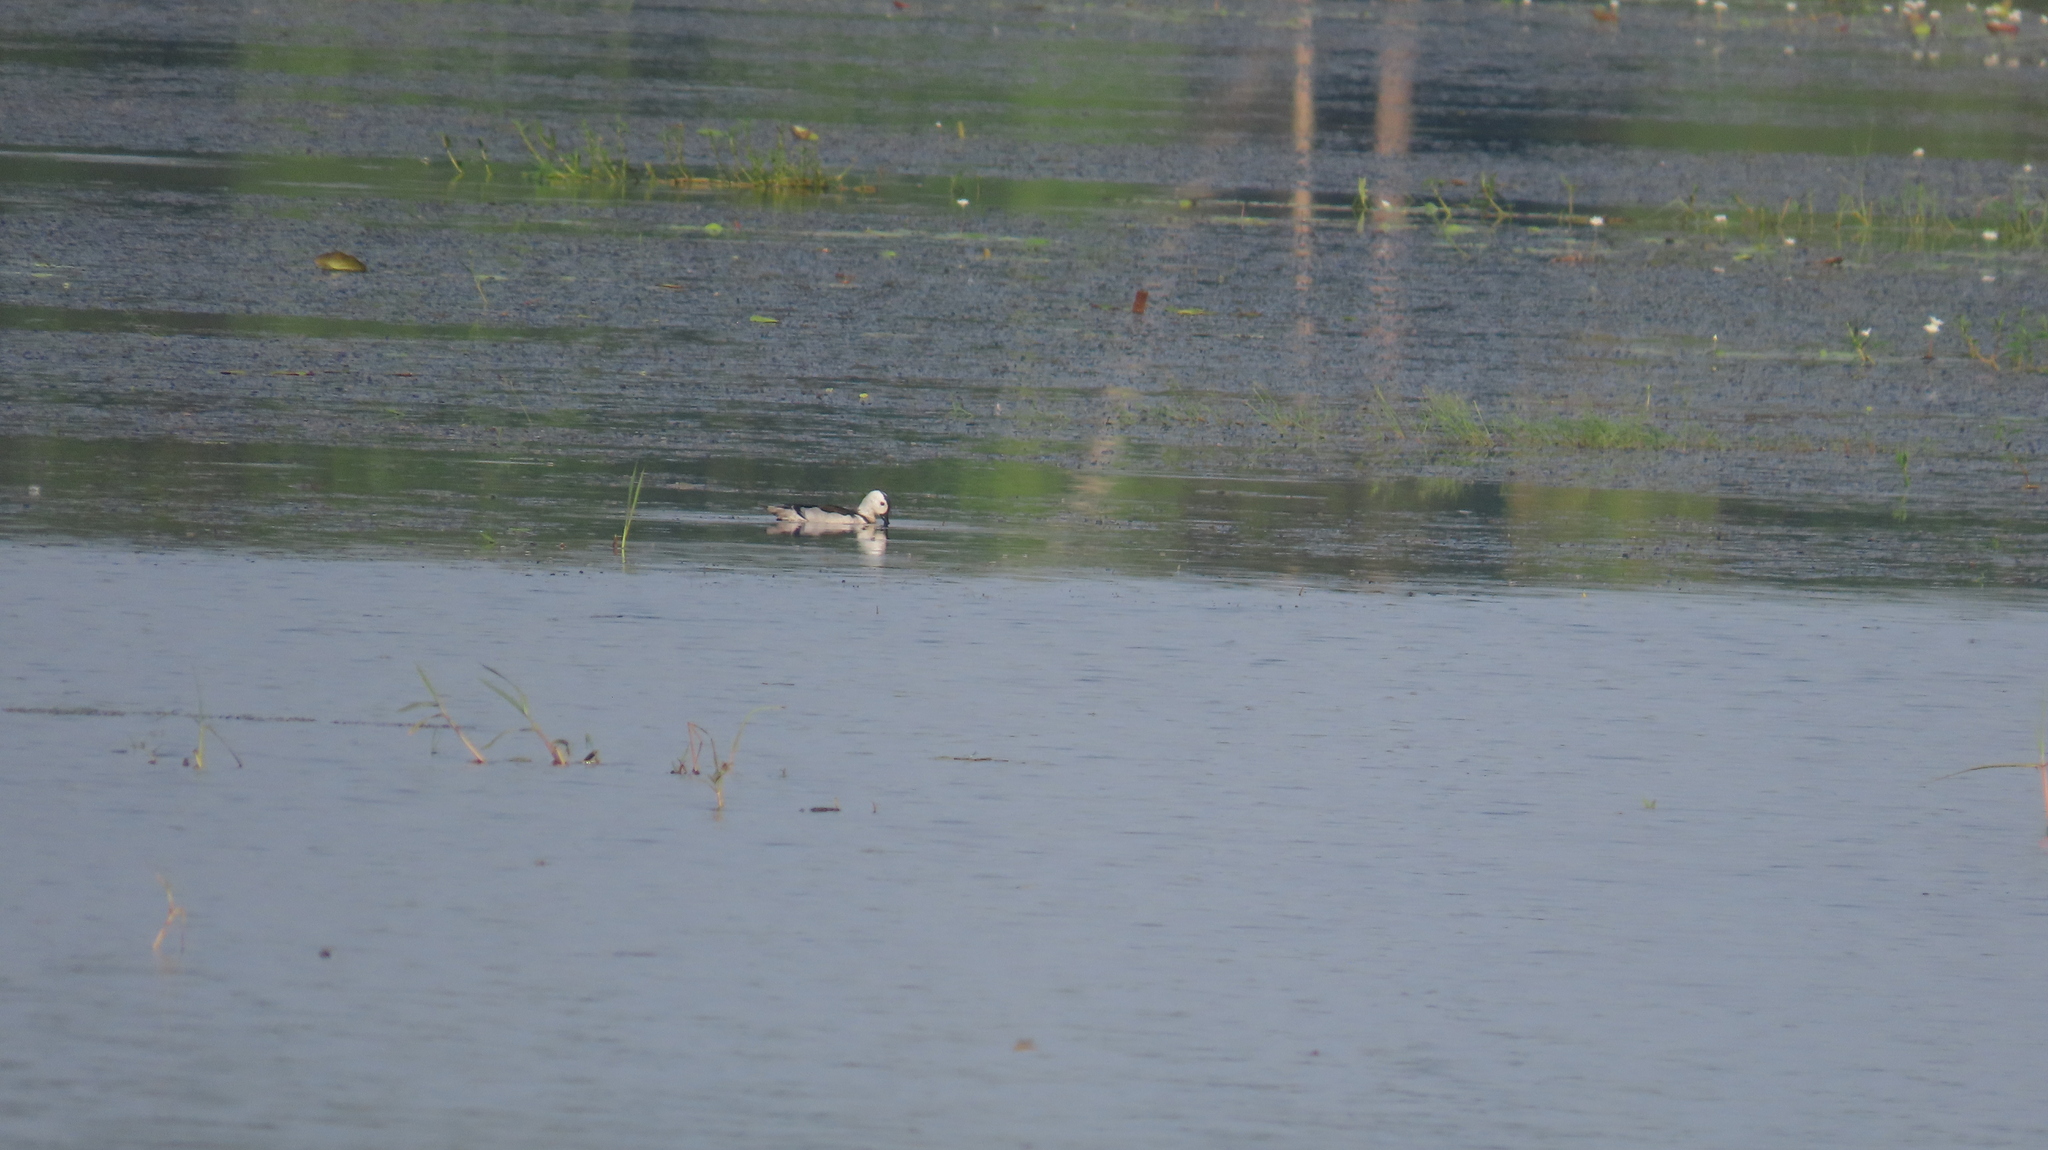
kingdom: Animalia
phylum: Chordata
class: Aves
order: Anseriformes
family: Anatidae
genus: Nettapus
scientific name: Nettapus coromandelianus
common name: Cotton pygmy-goose
